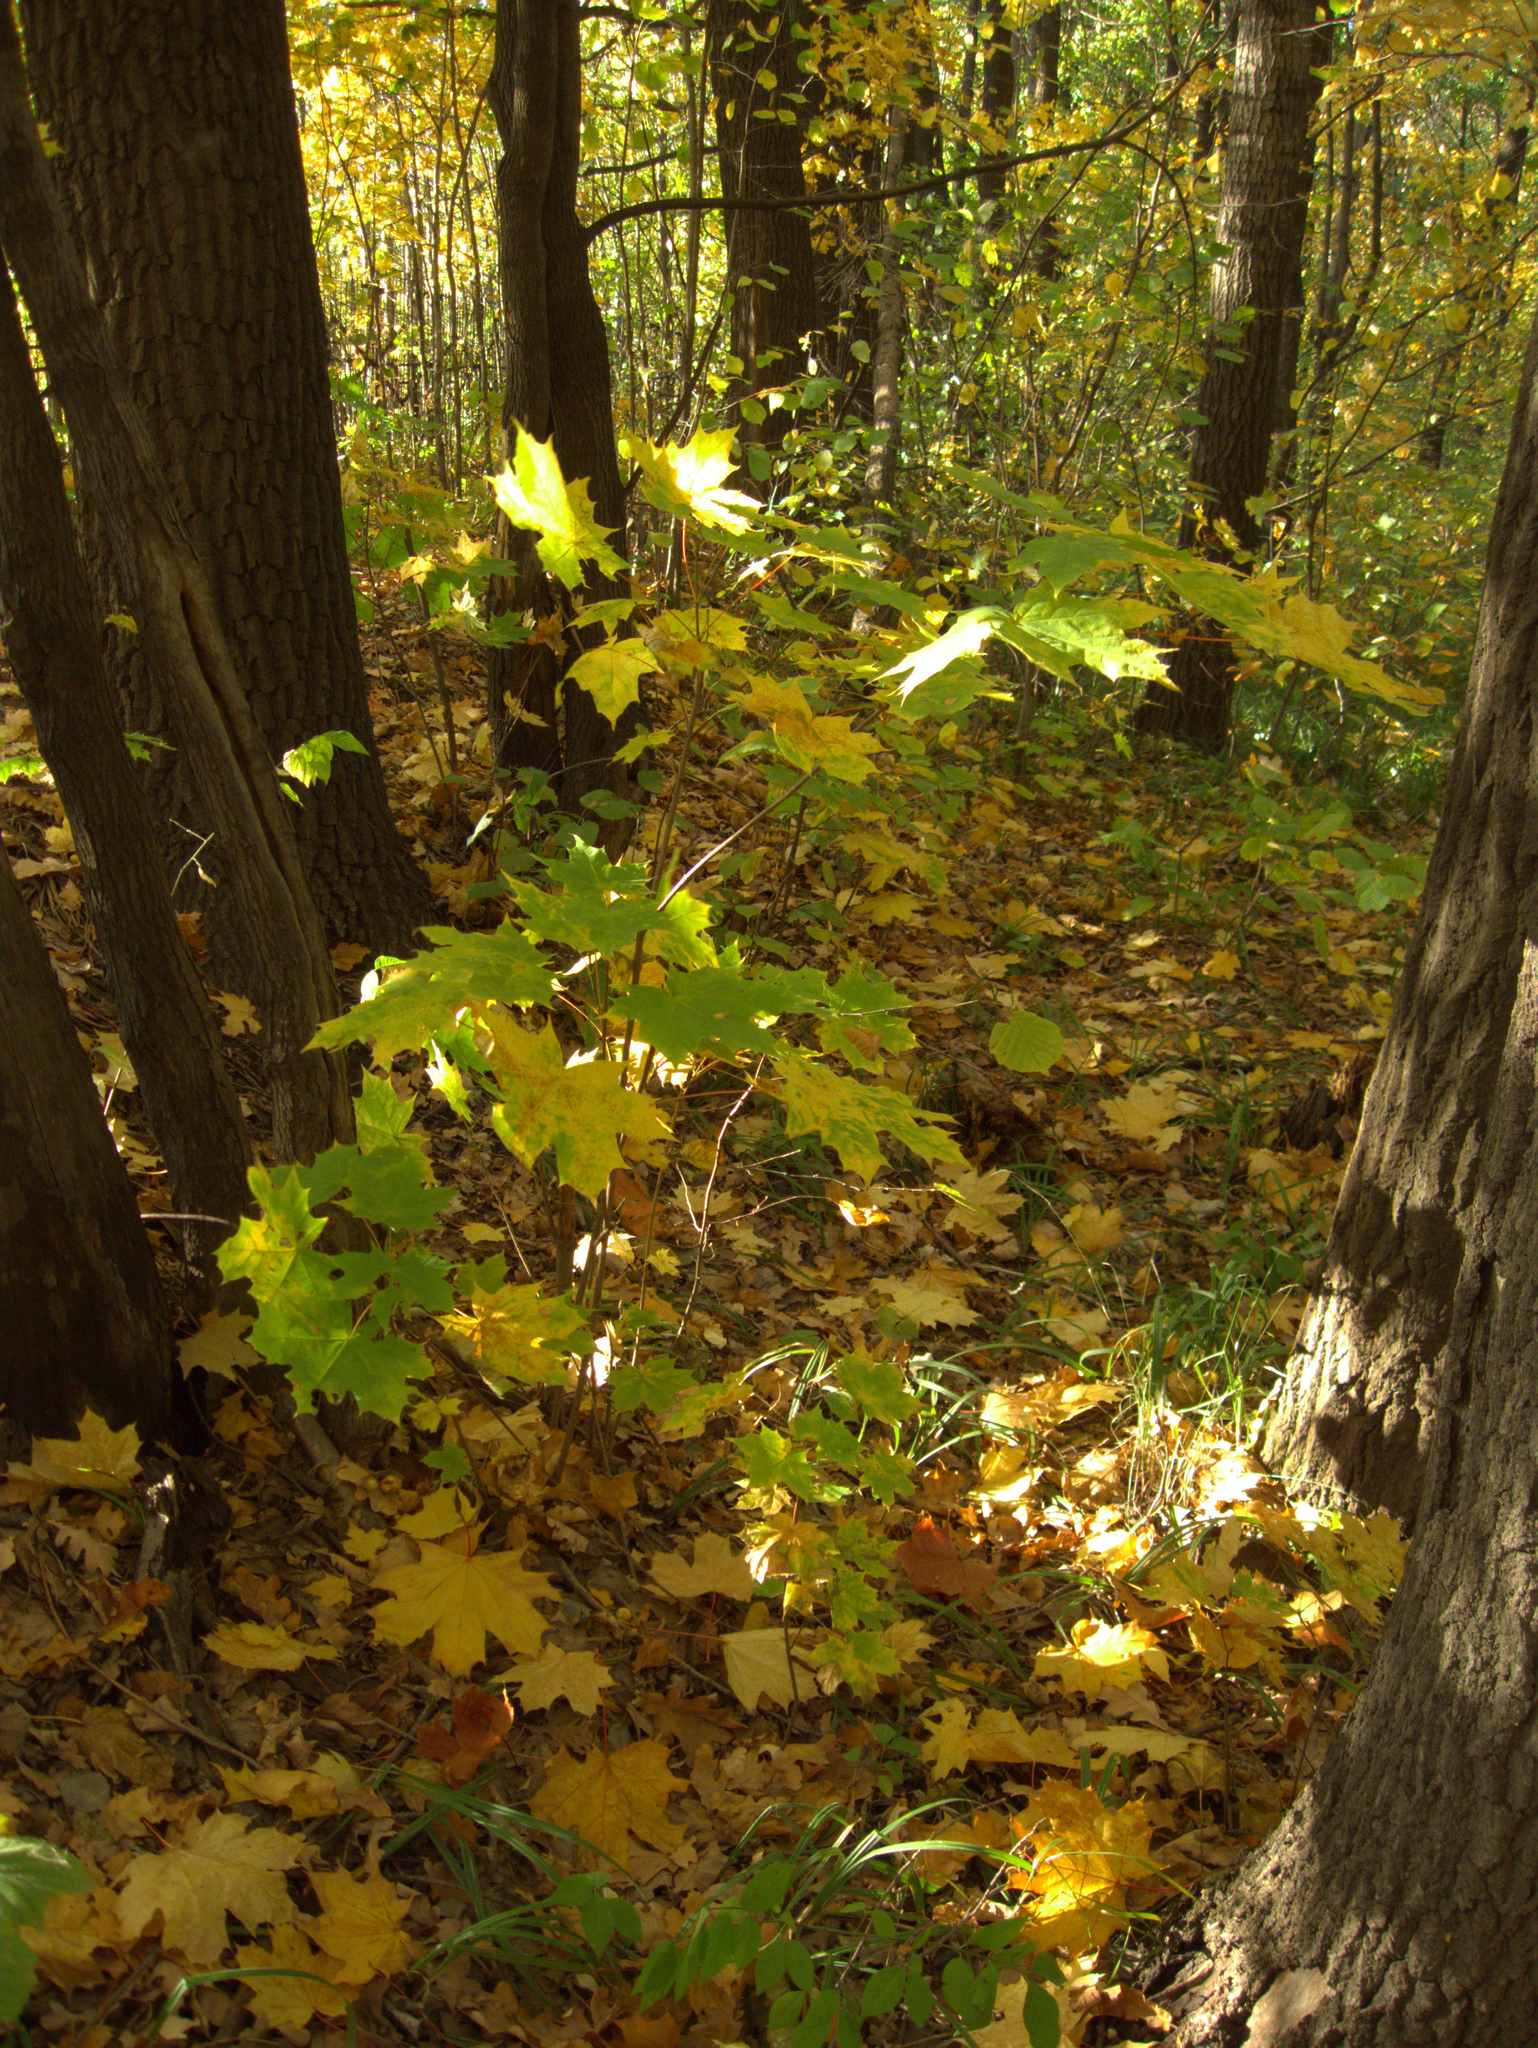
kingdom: Plantae
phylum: Tracheophyta
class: Magnoliopsida
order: Sapindales
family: Sapindaceae
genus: Acer
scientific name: Acer platanoides
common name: Norway maple
